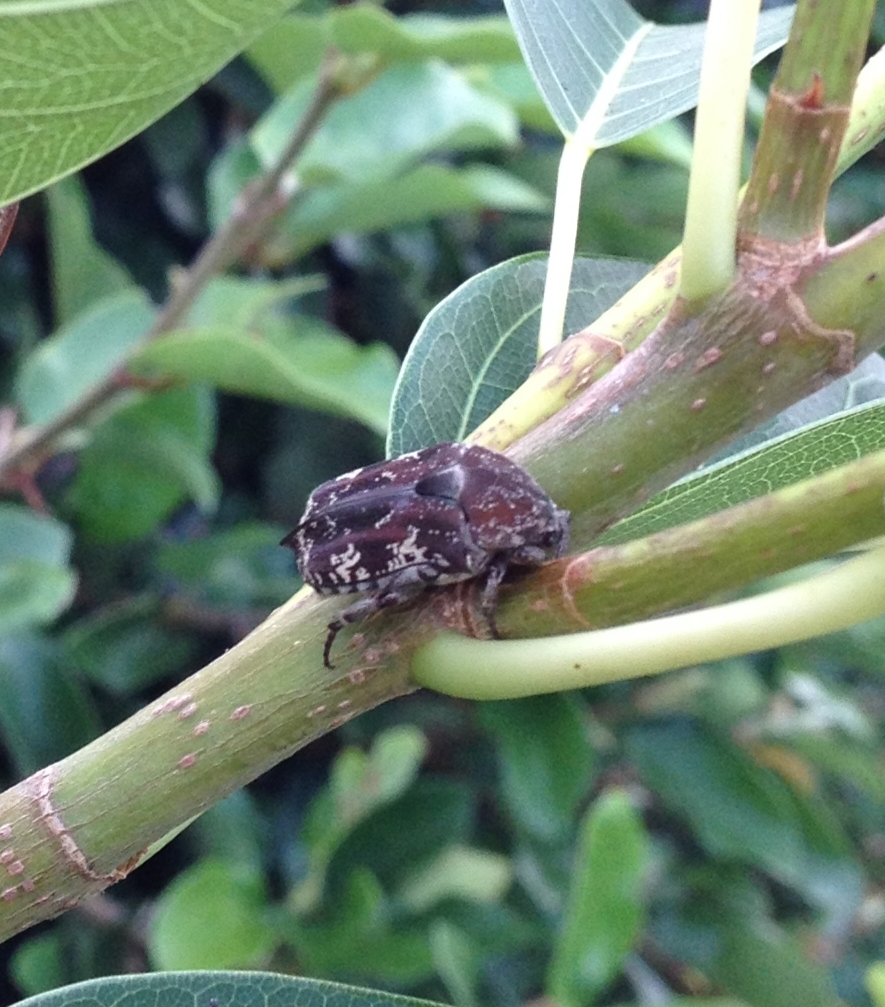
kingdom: Animalia
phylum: Arthropoda
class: Insecta
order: Coleoptera
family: Scarabaeidae
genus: Protaetia
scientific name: Protaetia fusca
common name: Mango flower beetle
